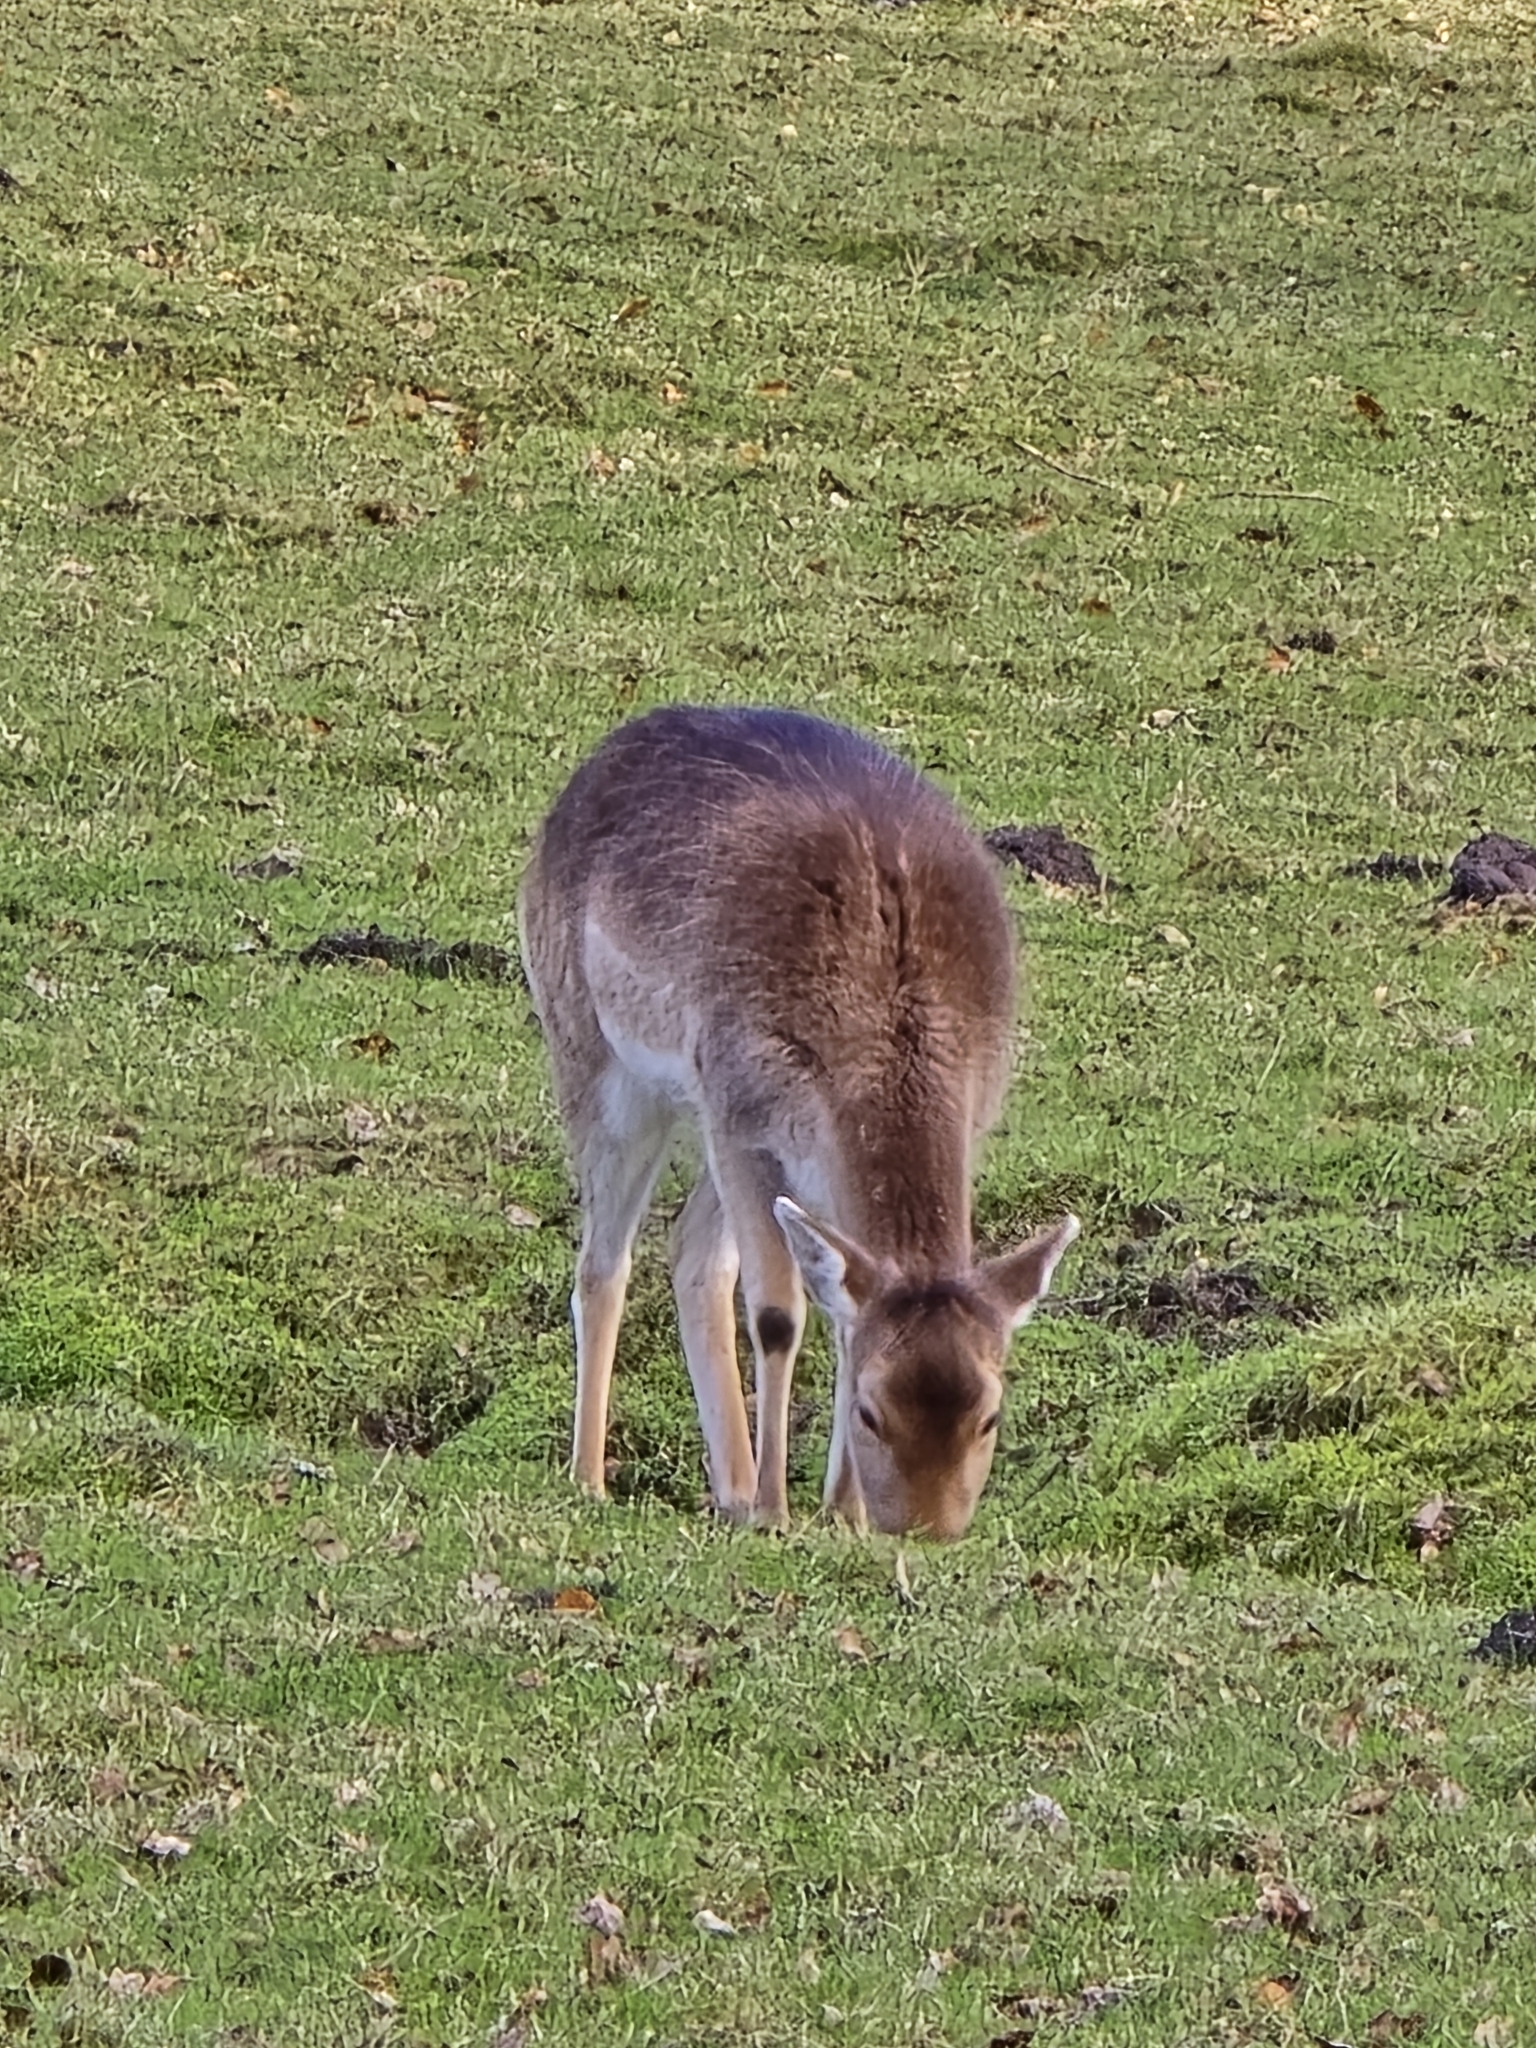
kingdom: Animalia
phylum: Chordata
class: Mammalia
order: Artiodactyla
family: Cervidae
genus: Dama
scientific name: Dama dama
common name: Fallow deer
